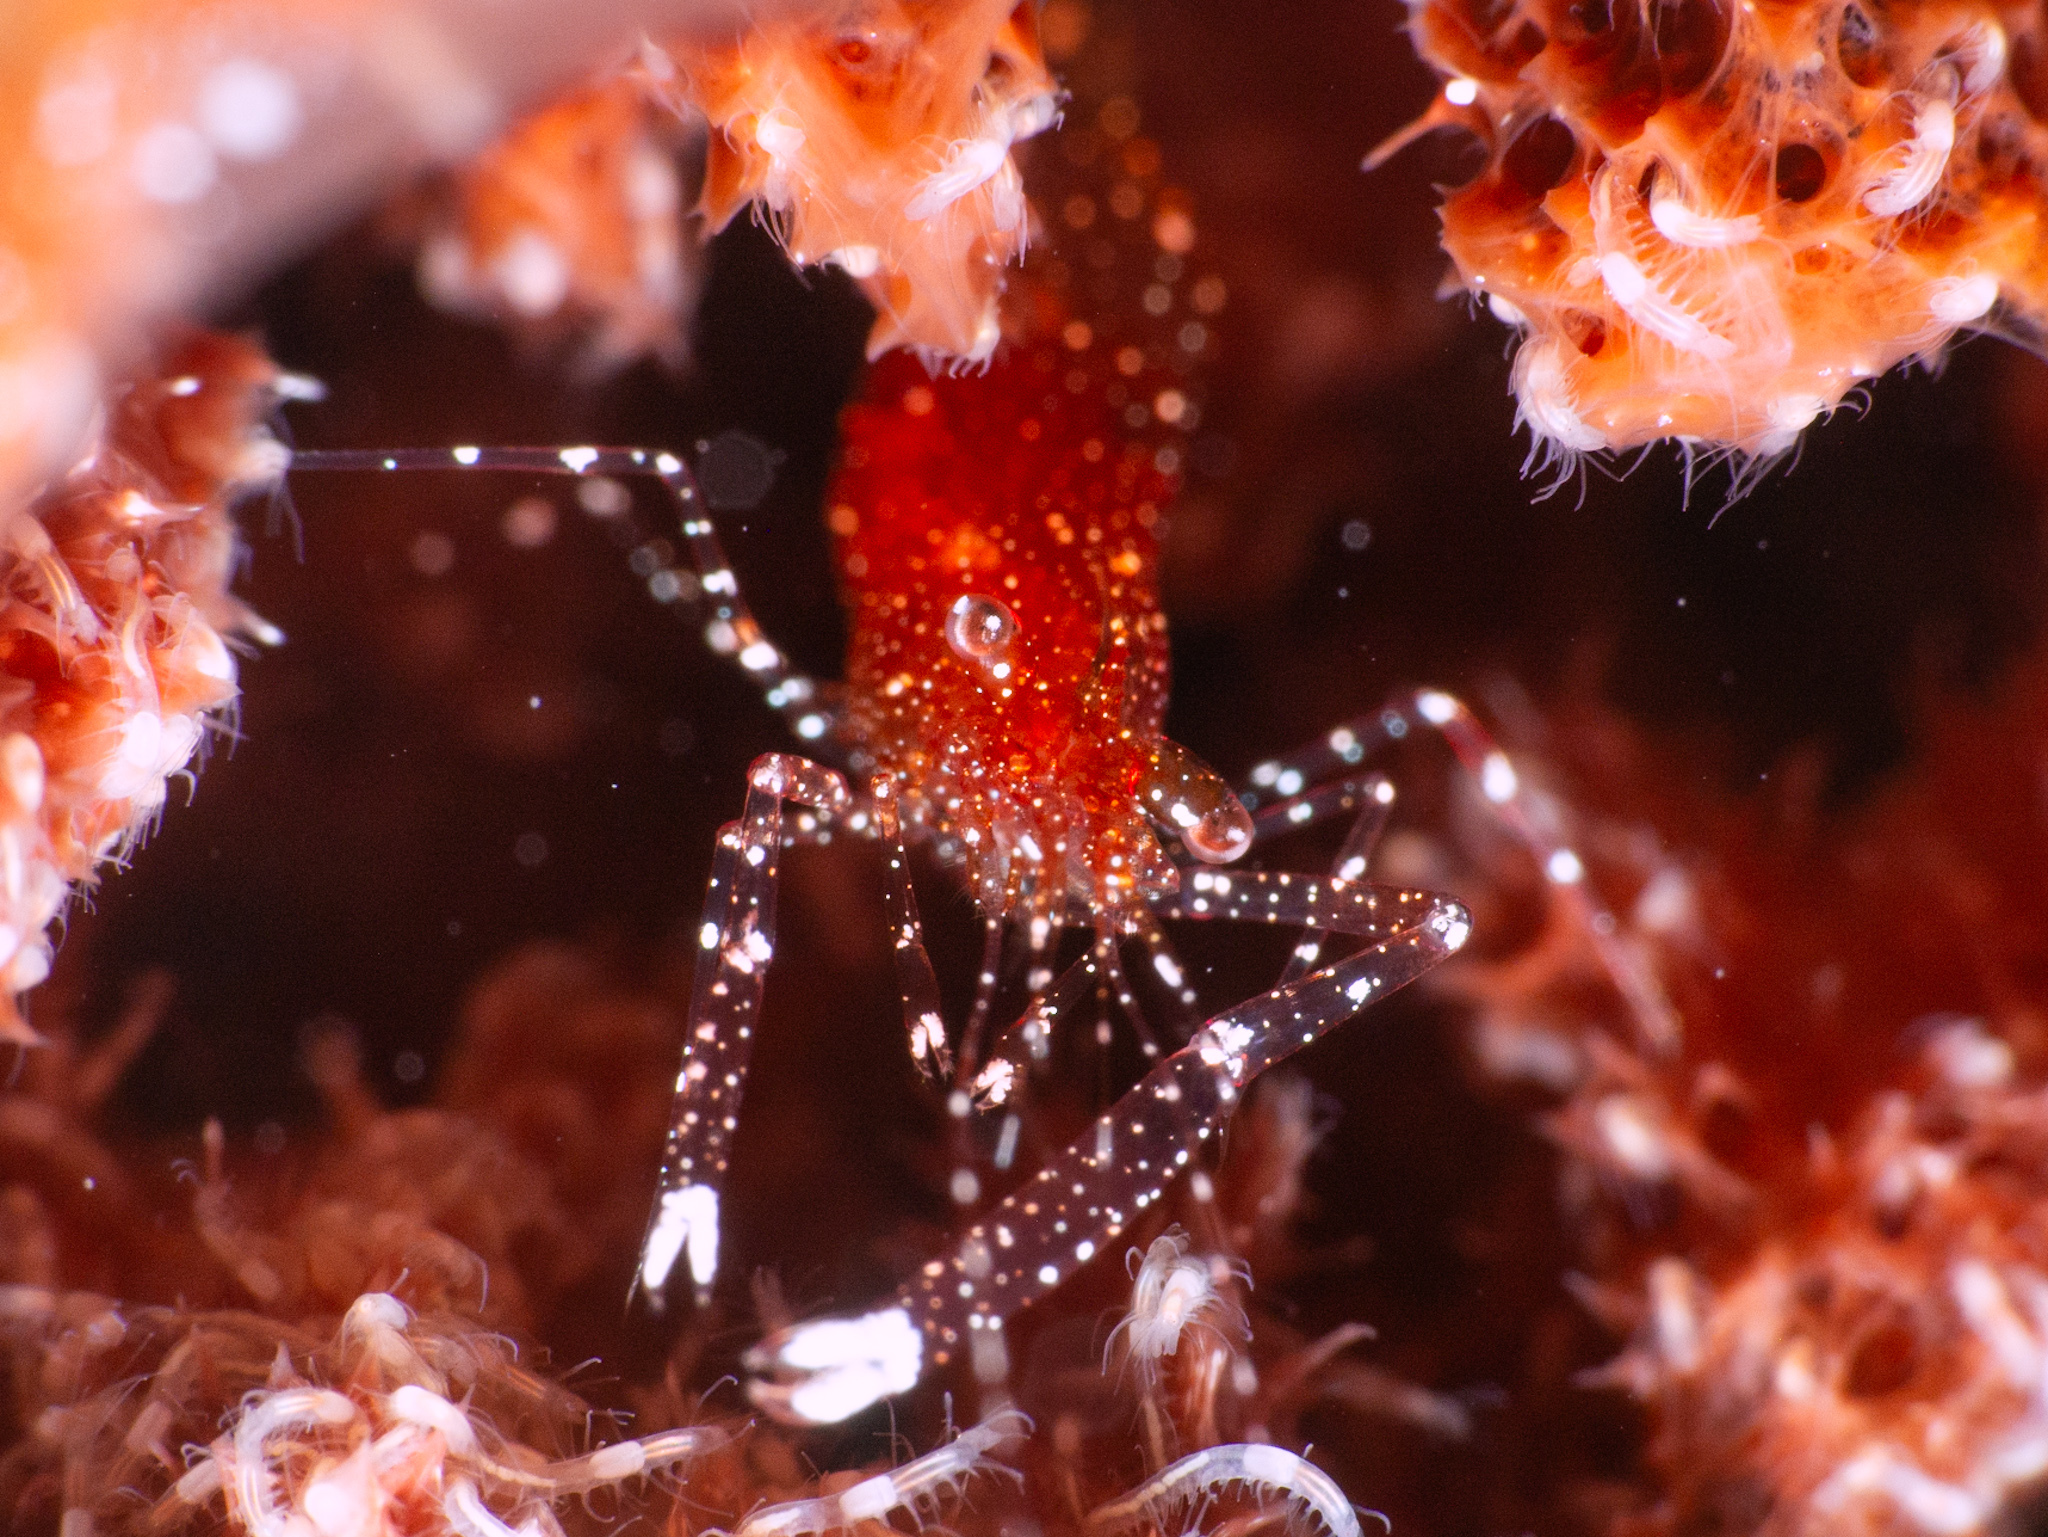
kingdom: Animalia
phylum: Arthropoda
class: Malacostraca
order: Decapoda
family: Palaemonidae
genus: Periclimenes
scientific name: Periclimenes harringtoni
